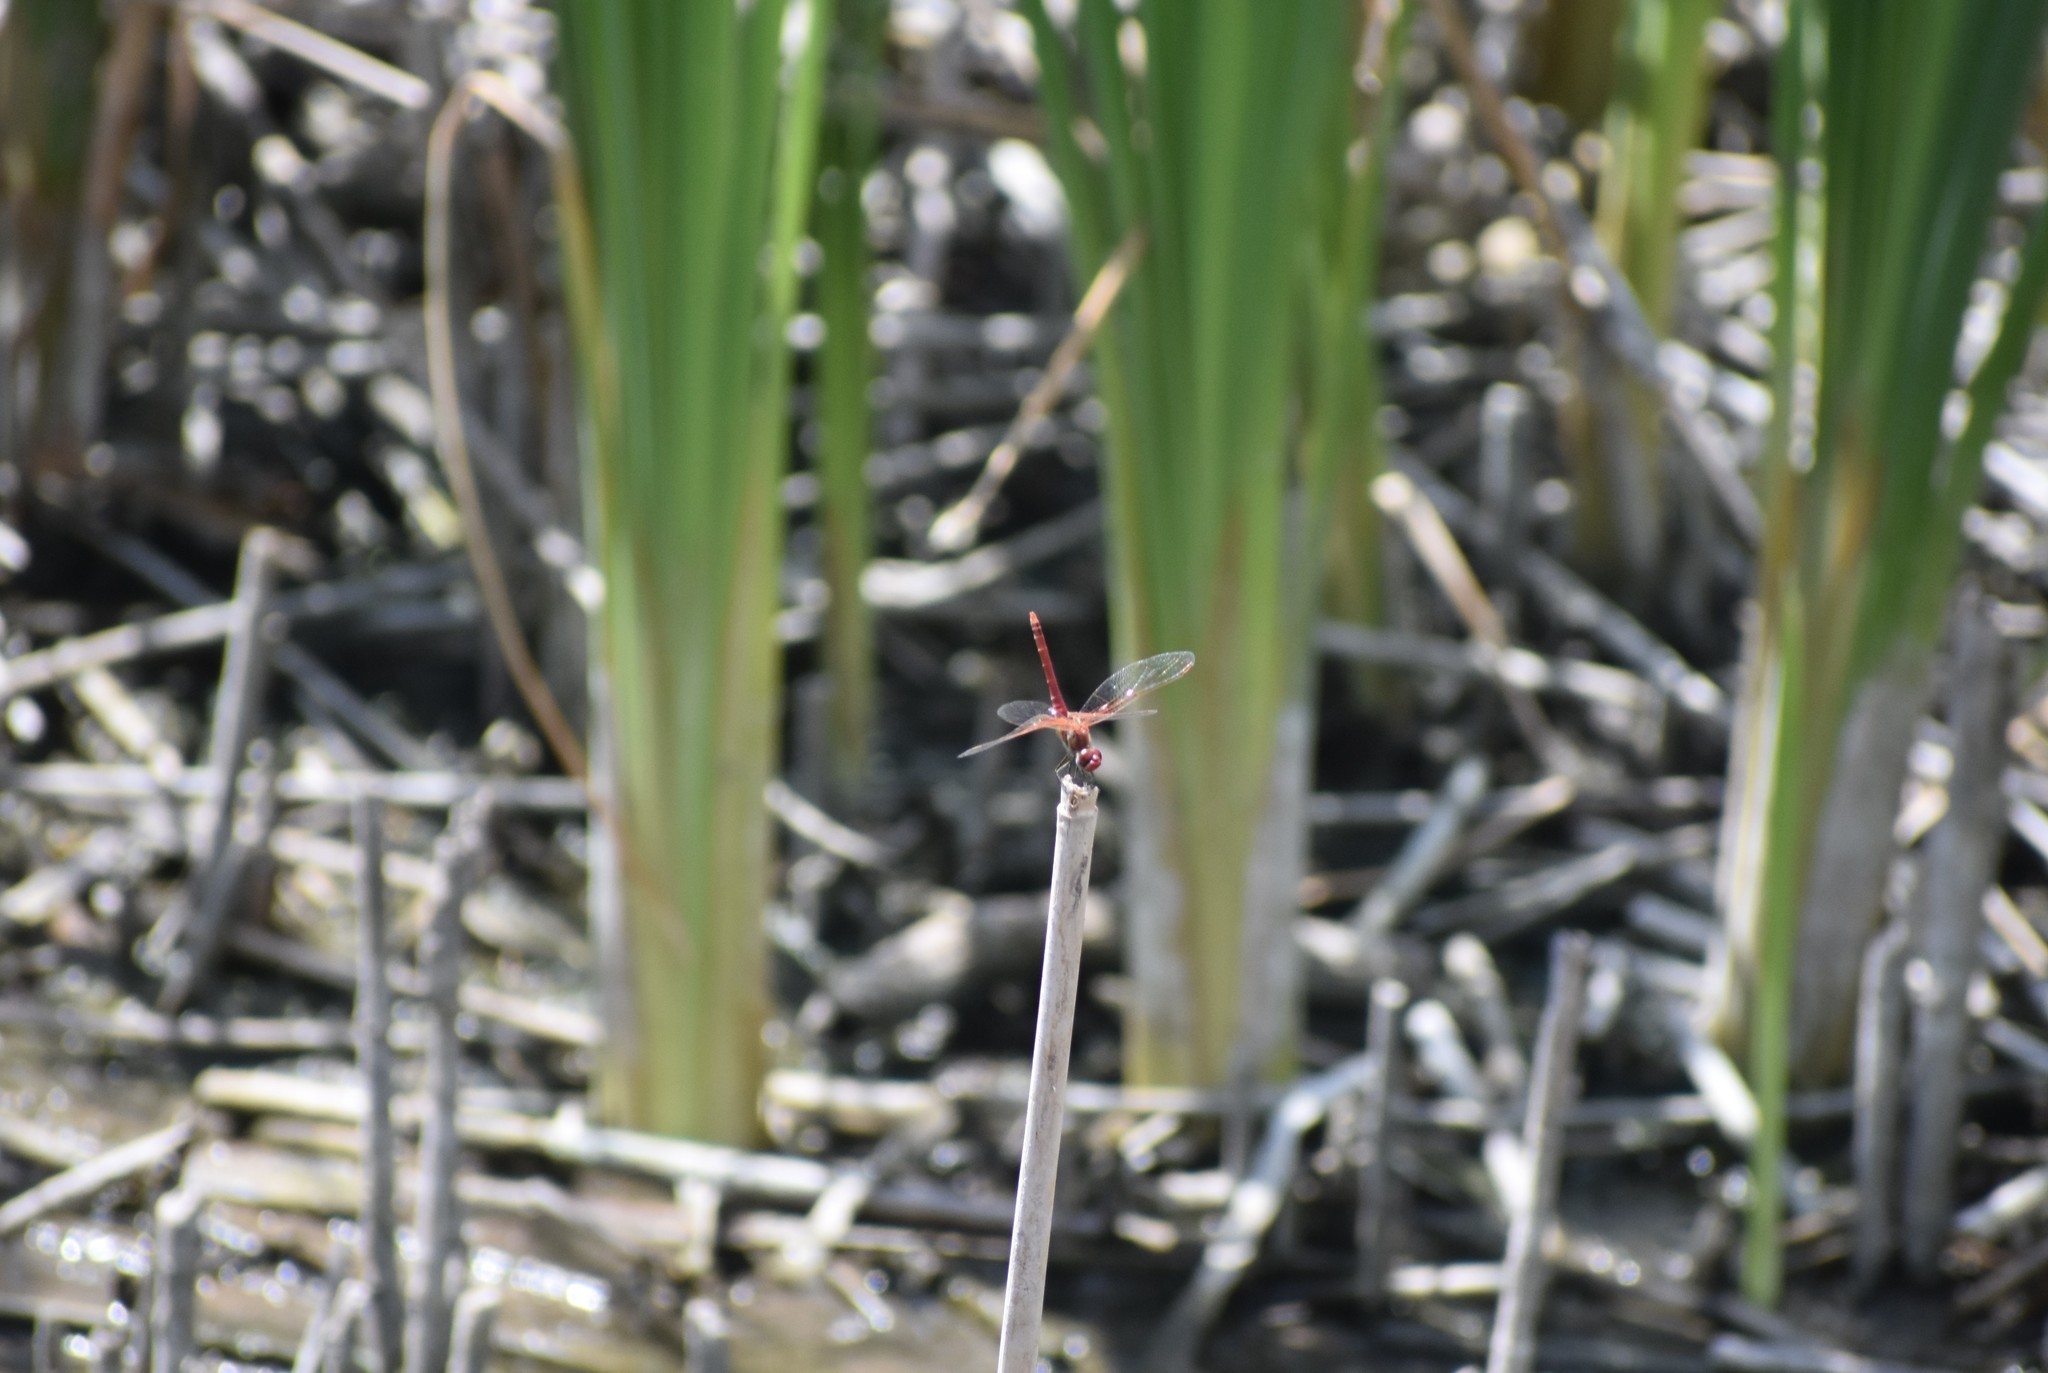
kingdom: Animalia
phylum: Arthropoda
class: Insecta
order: Odonata
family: Libellulidae
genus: Sympetrum
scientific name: Sympetrum fonscolombii
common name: Red-veined darter
